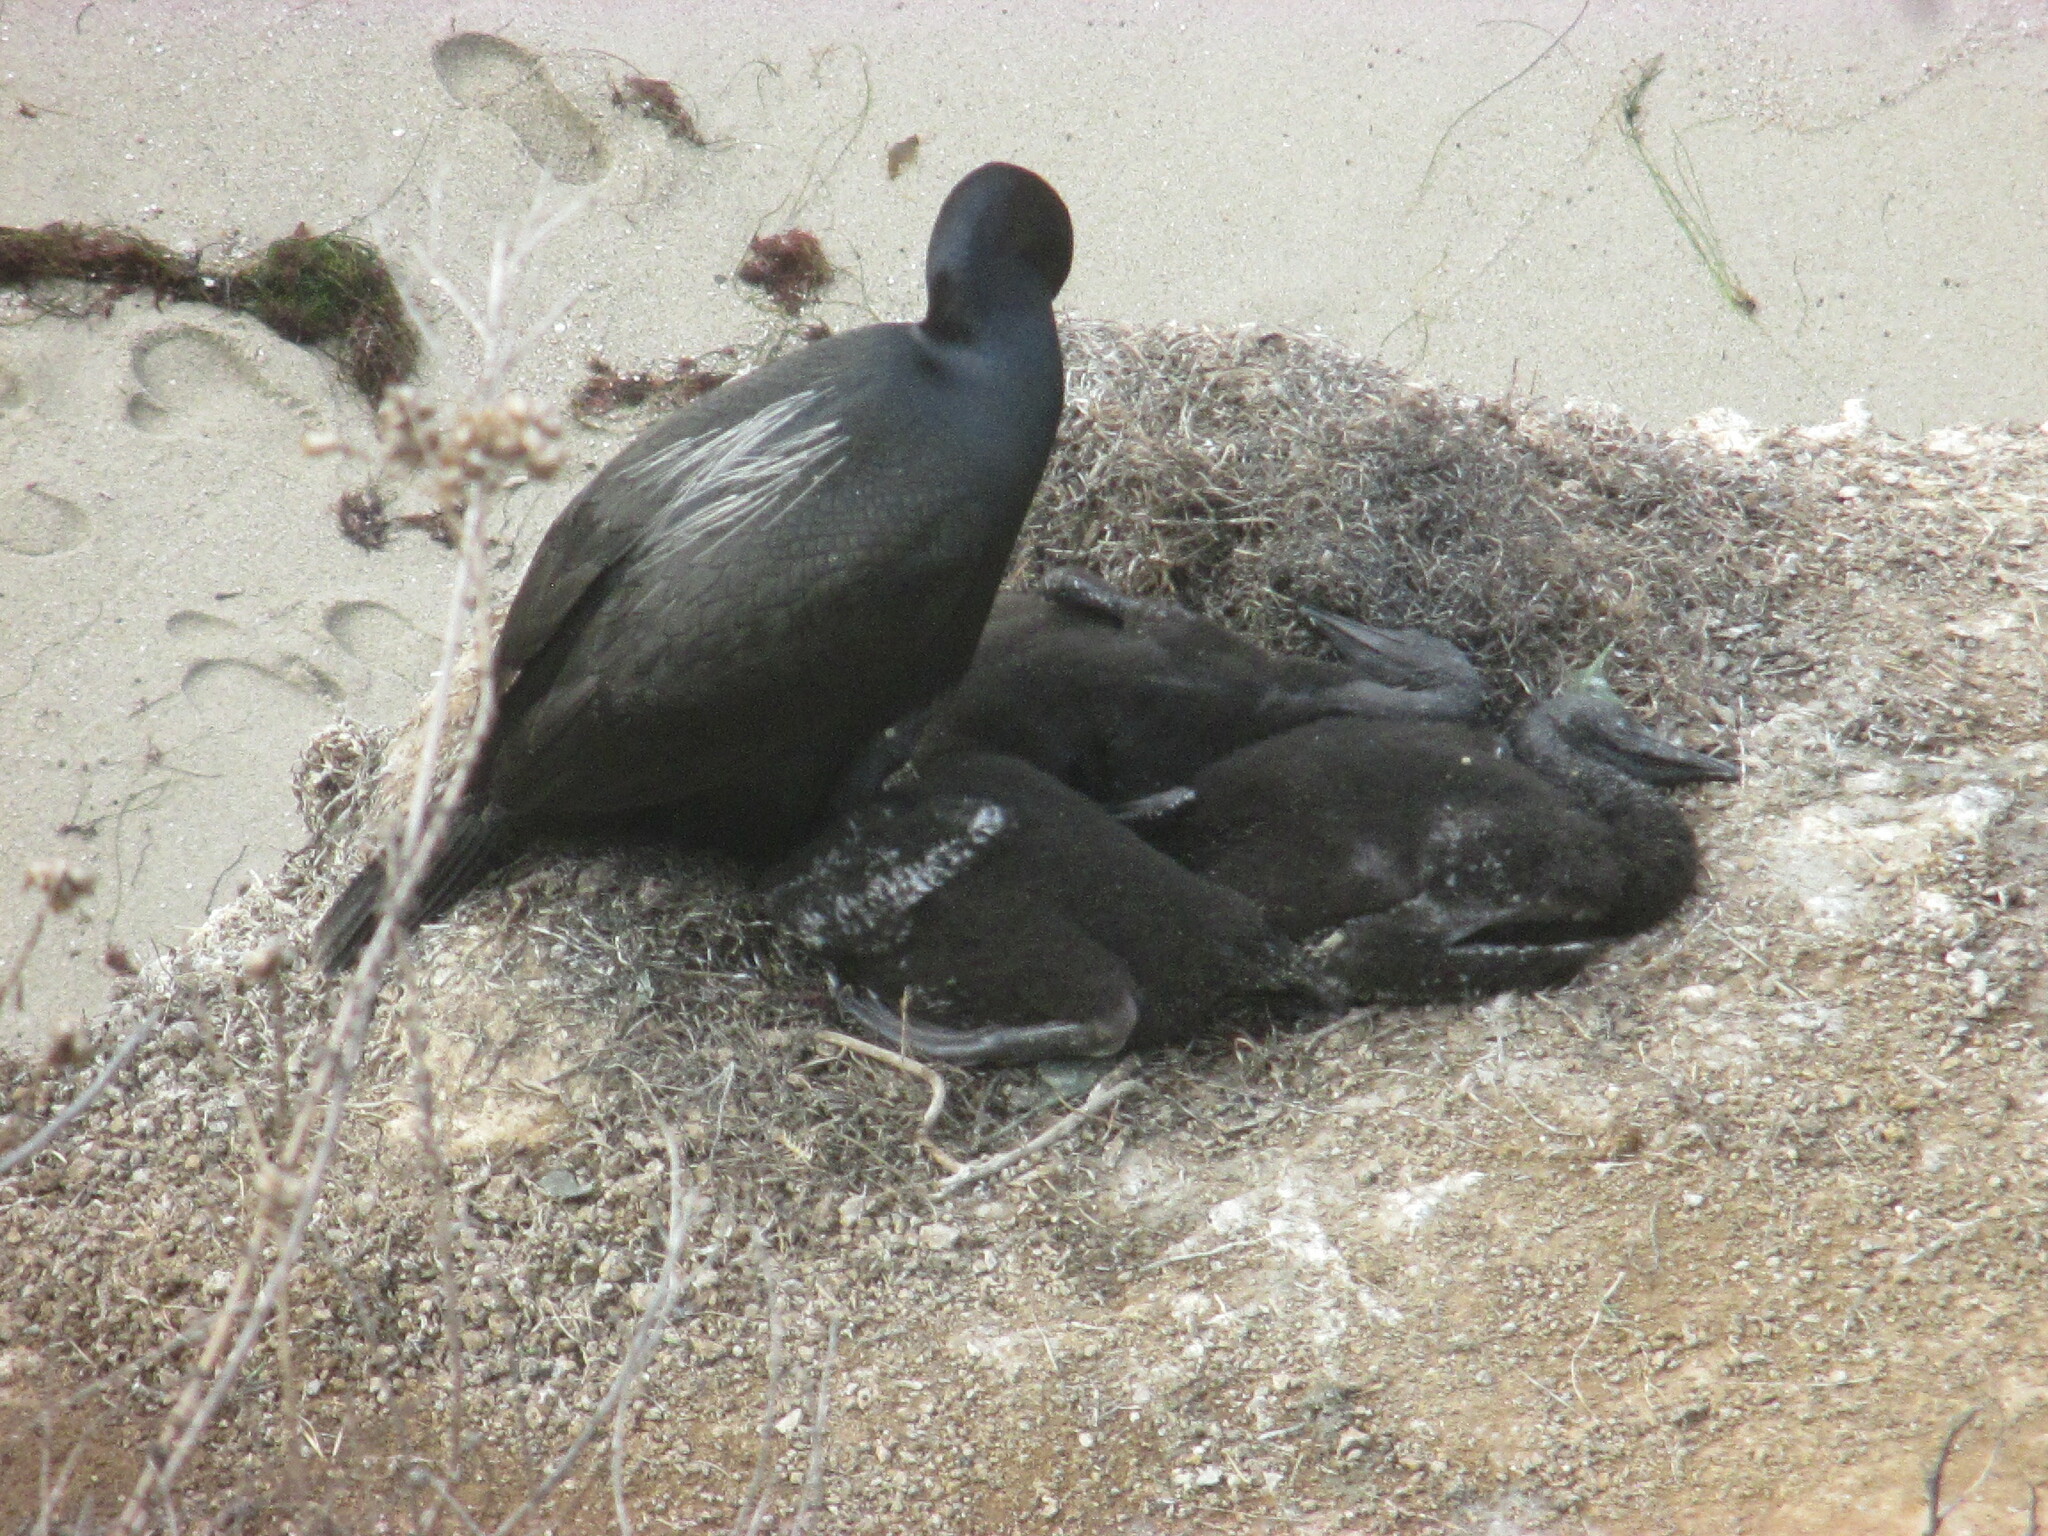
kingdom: Animalia
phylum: Chordata
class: Aves
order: Suliformes
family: Phalacrocoracidae
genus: Urile
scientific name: Urile penicillatus
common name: Brandt's cormorant
